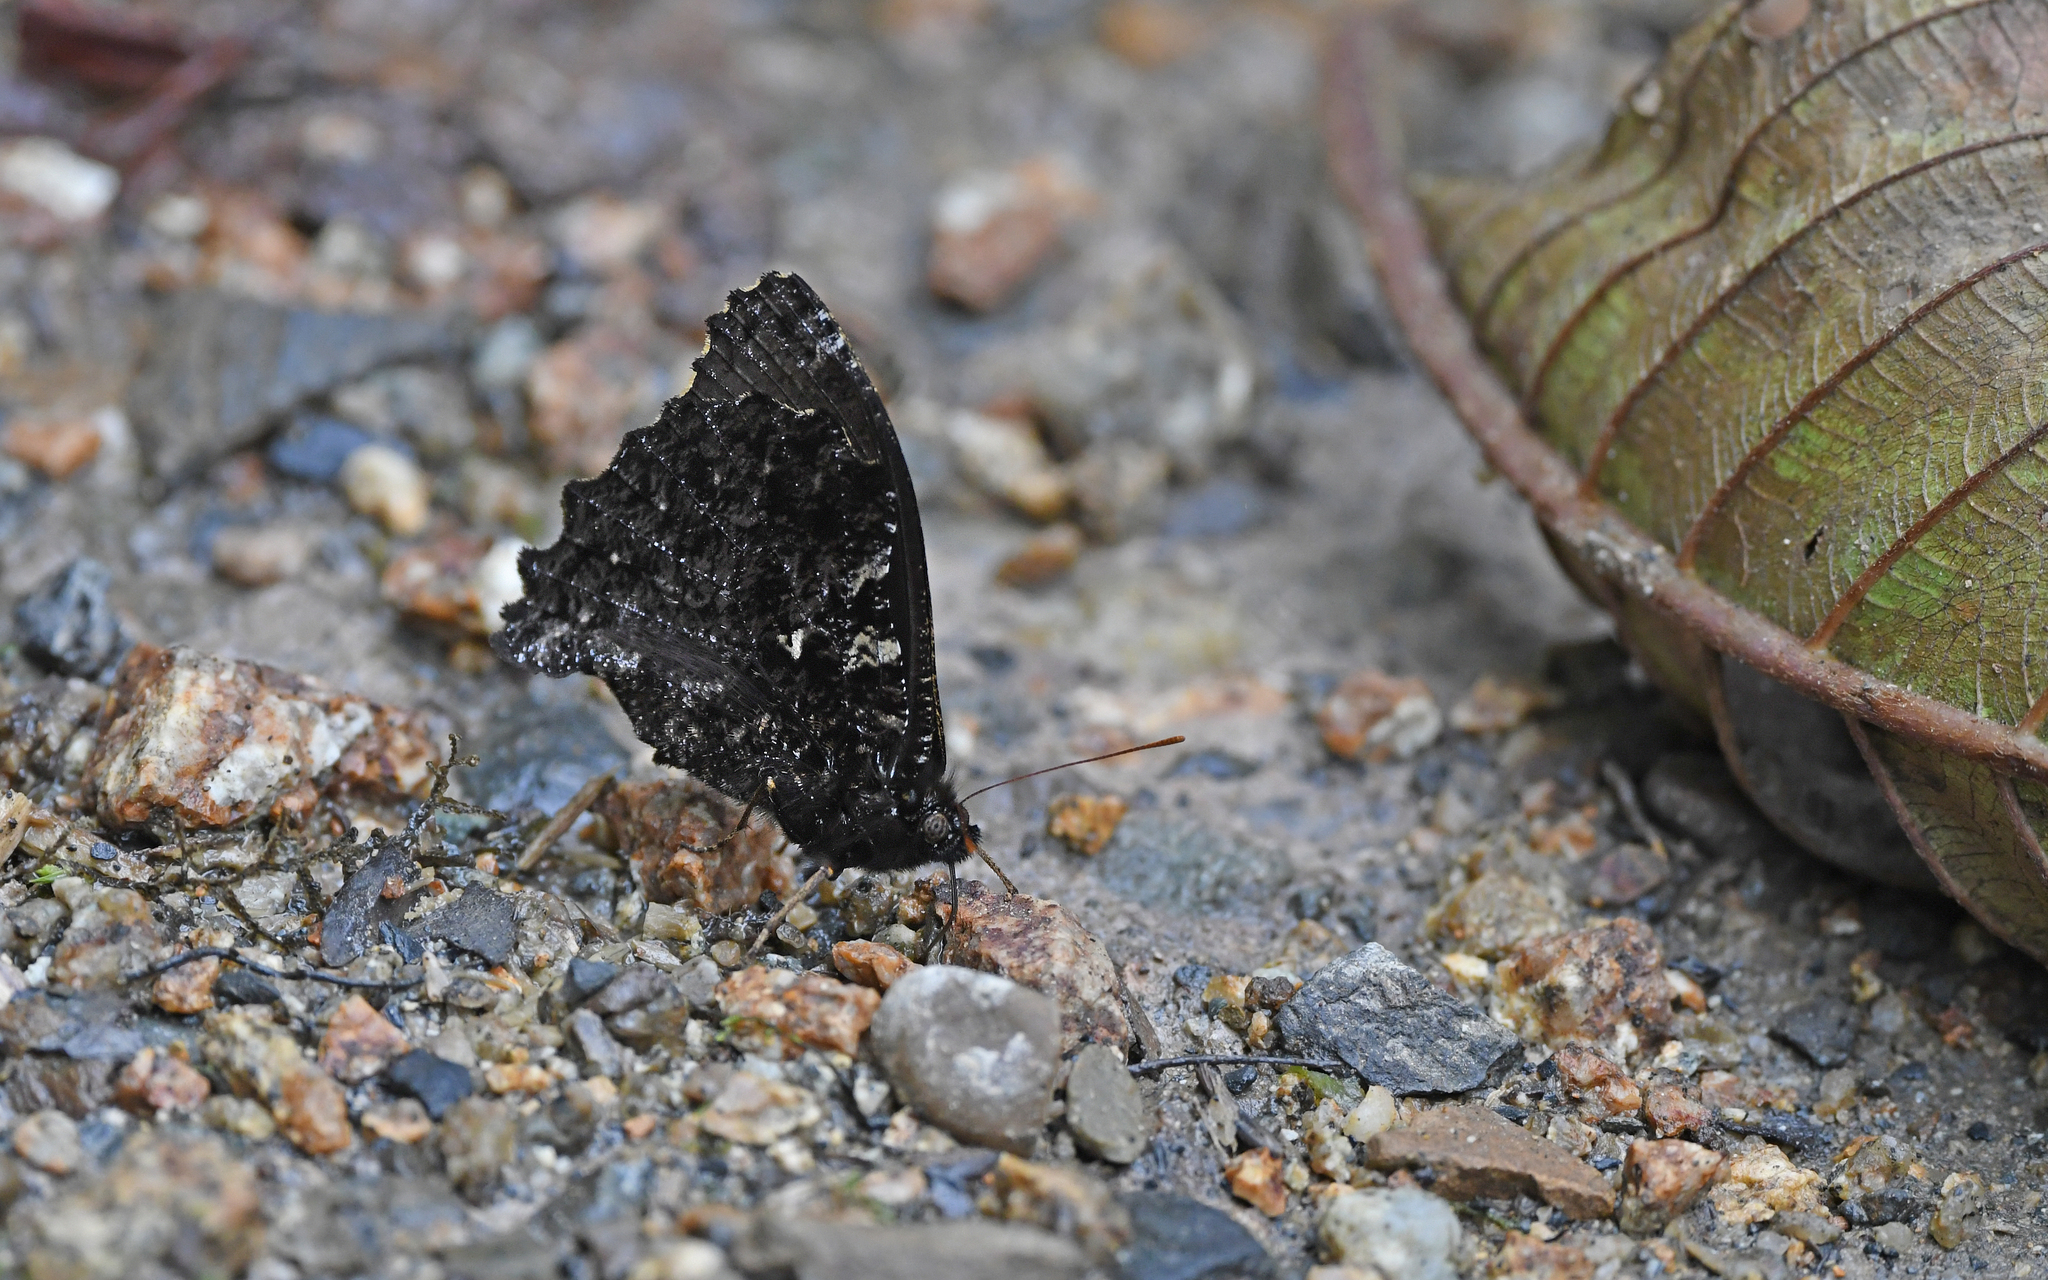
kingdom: Animalia
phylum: Arthropoda
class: Insecta
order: Lepidoptera
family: Nymphalidae
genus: Steroma
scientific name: Steroma superba
